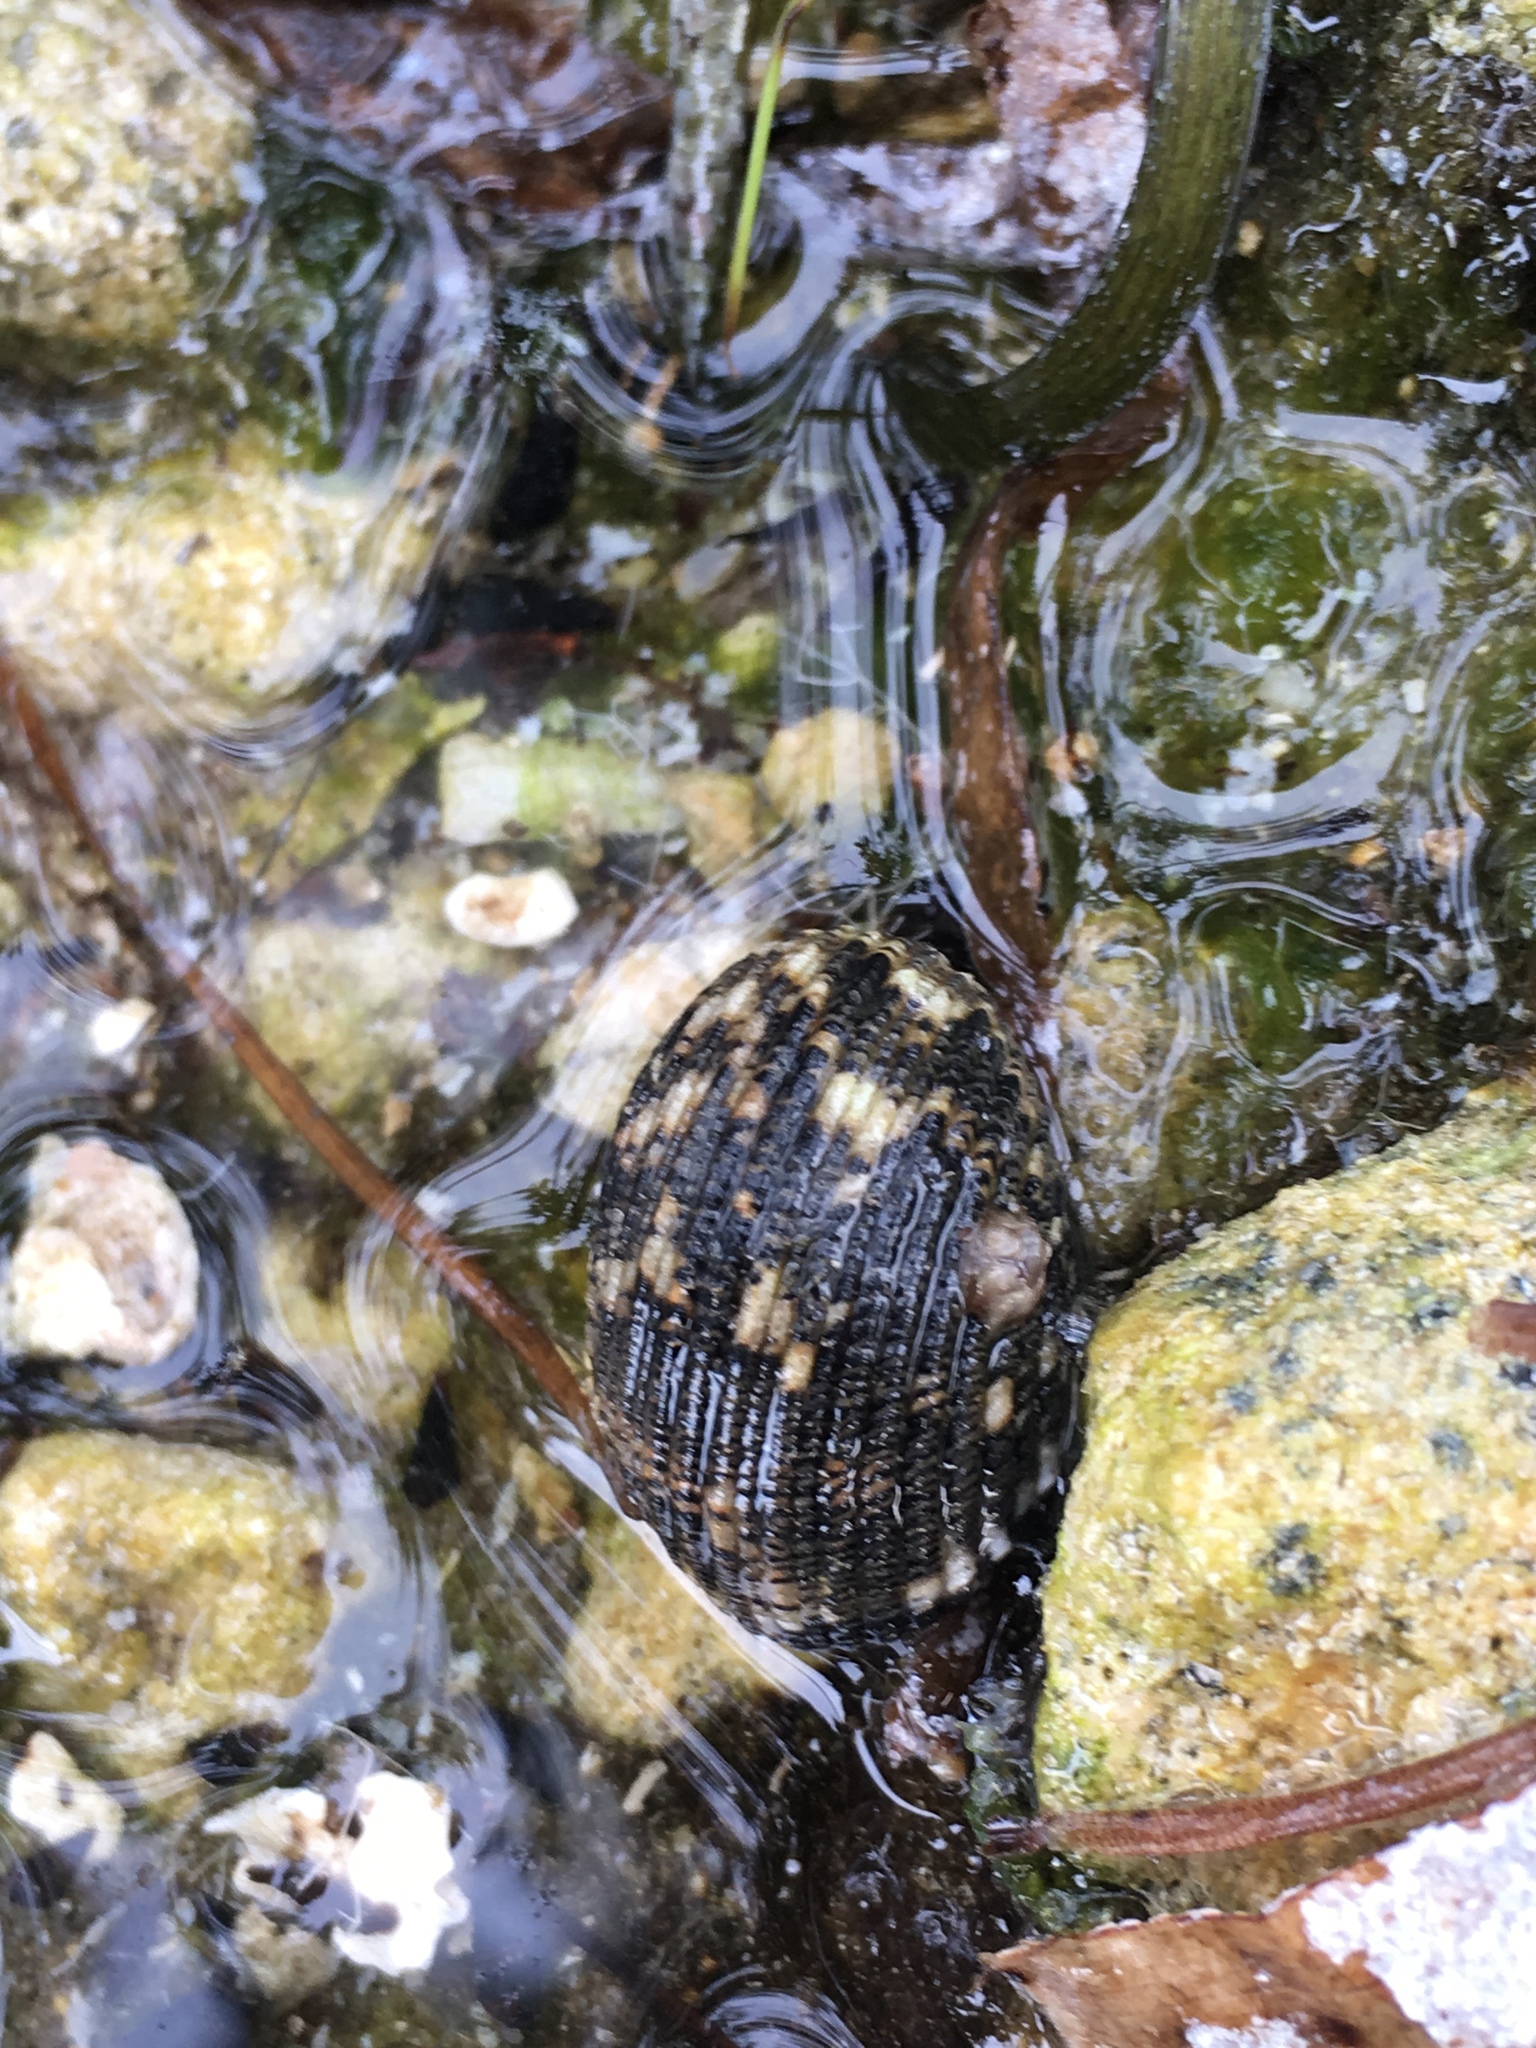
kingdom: Animalia
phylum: Mollusca
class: Gastropoda
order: Cycloneritida
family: Neritidae
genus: Nerita
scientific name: Nerita fulgurans
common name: Antillean nerite
